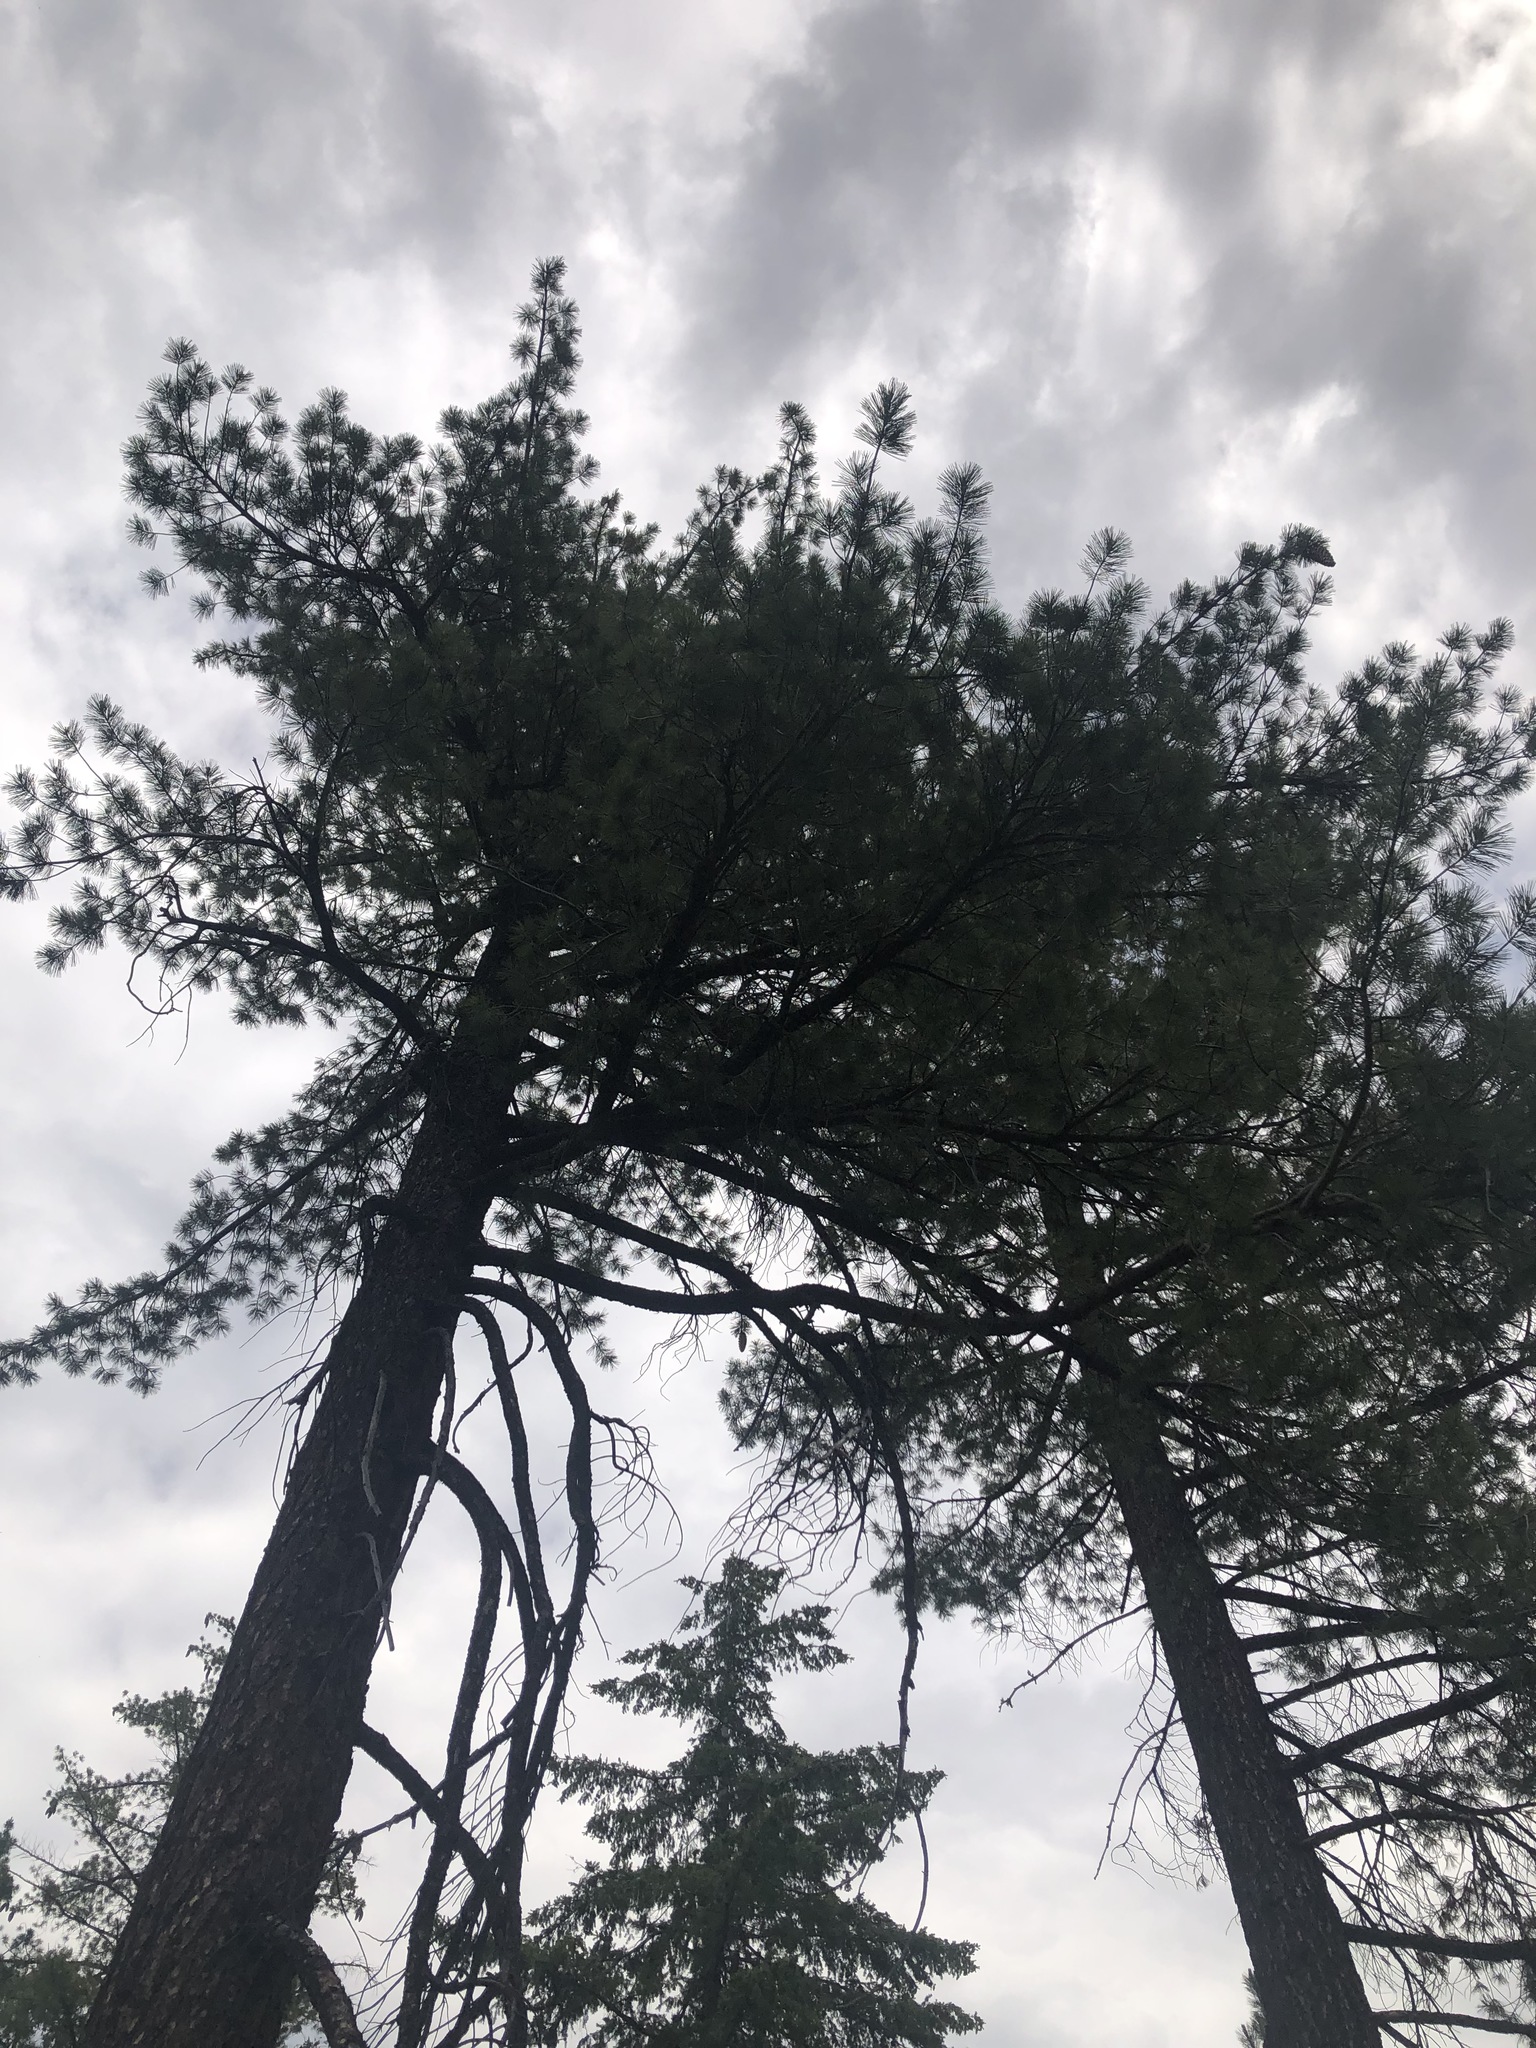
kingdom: Plantae
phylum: Tracheophyta
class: Pinopsida
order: Pinales
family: Pinaceae
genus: Pinus
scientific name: Pinus lambertiana
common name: Sugar pine
